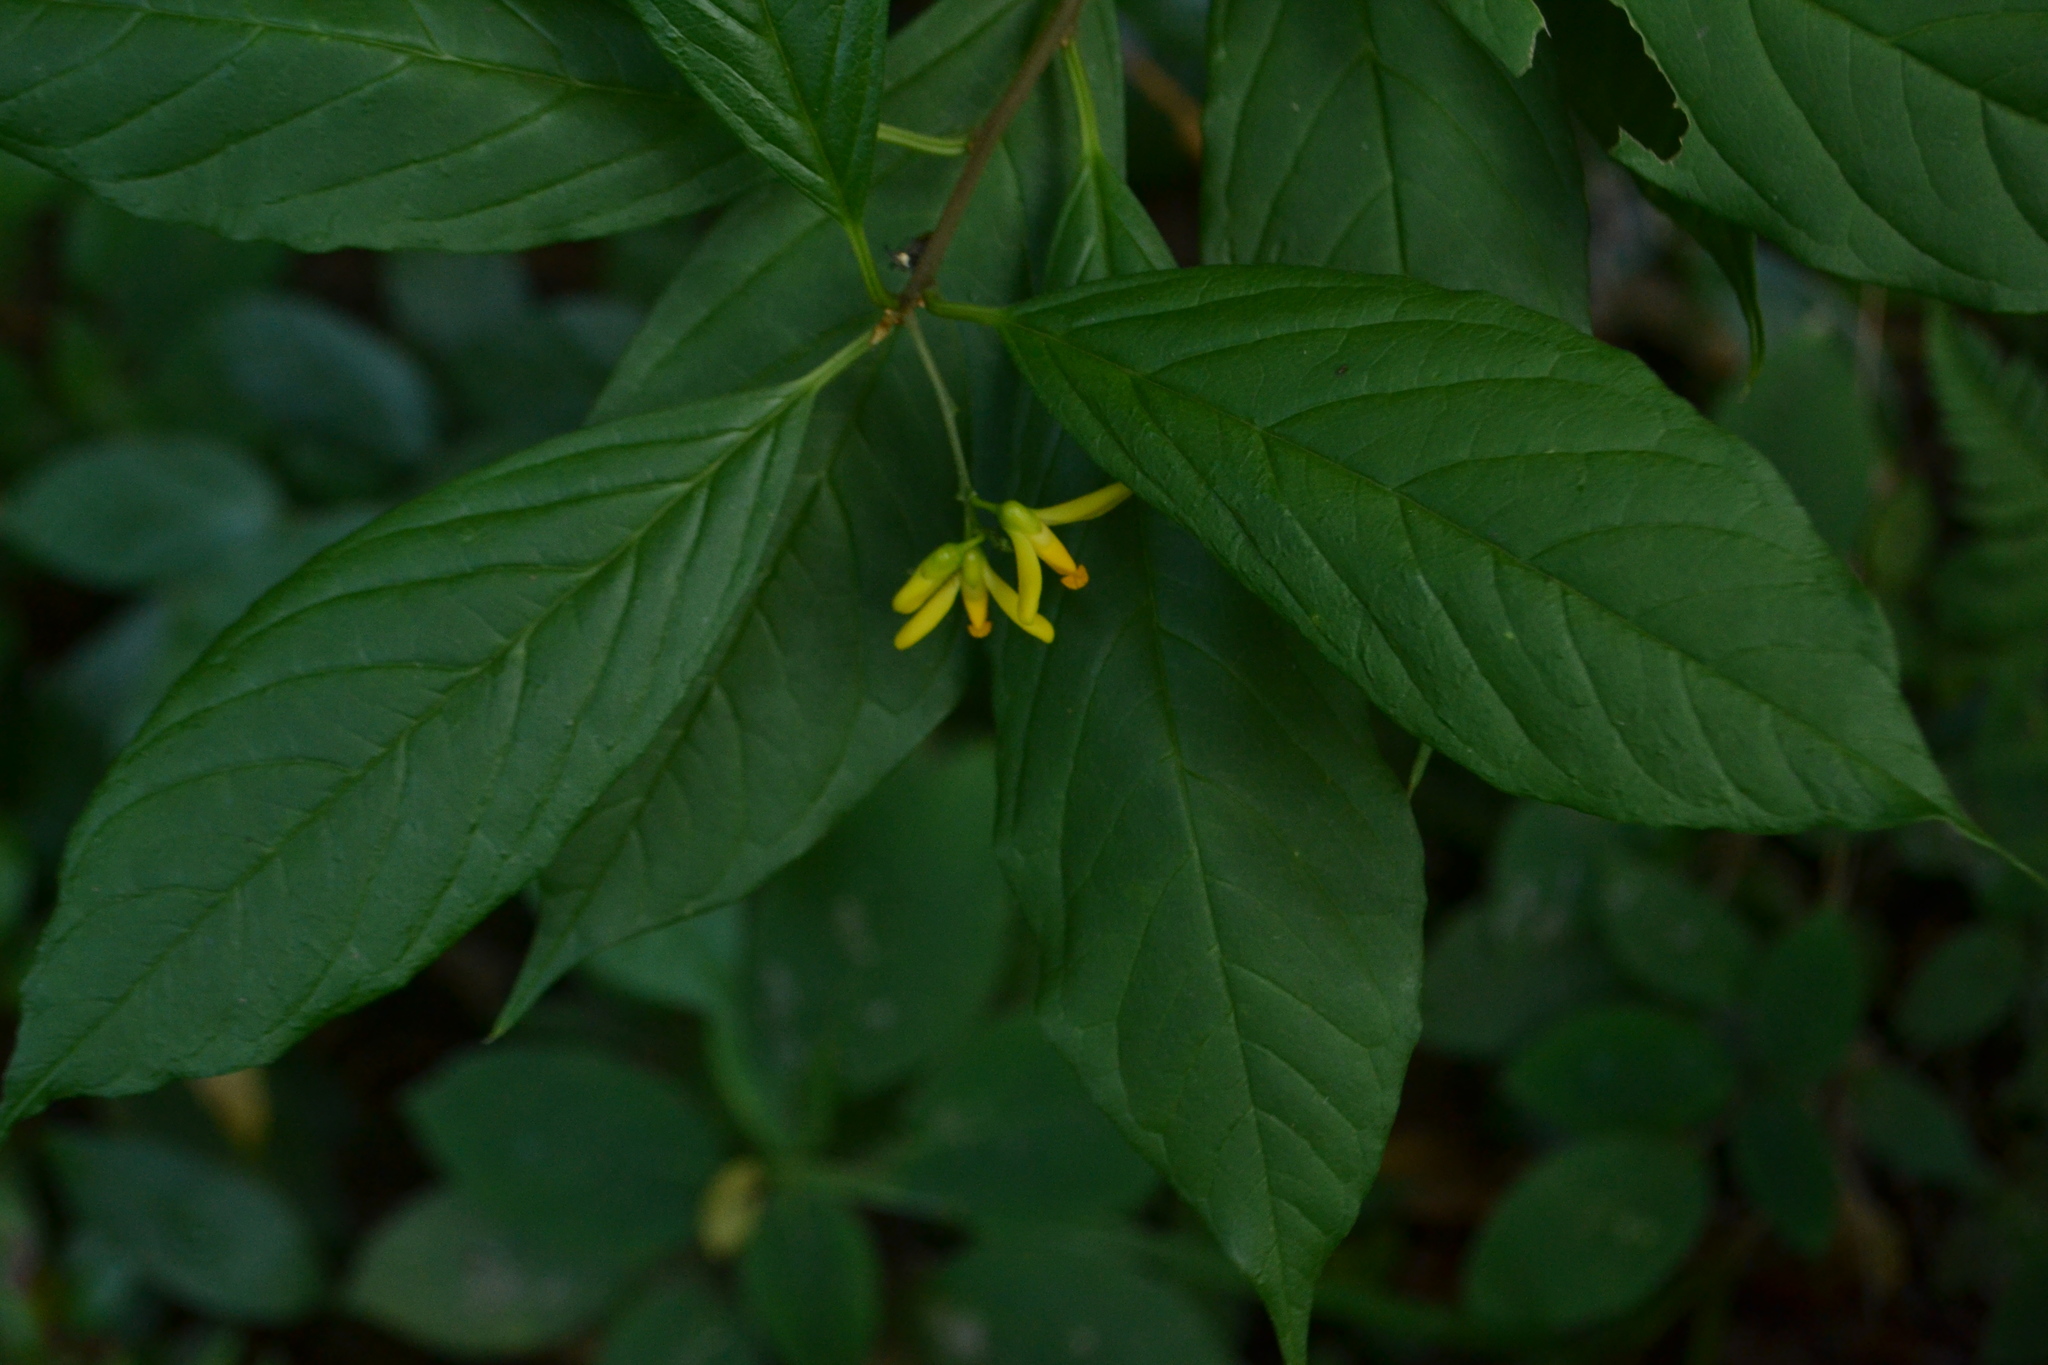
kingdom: Plantae
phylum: Tracheophyta
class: Magnoliopsida
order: Fabales
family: Polygalaceae
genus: Polygala
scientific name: Polygala arillata
